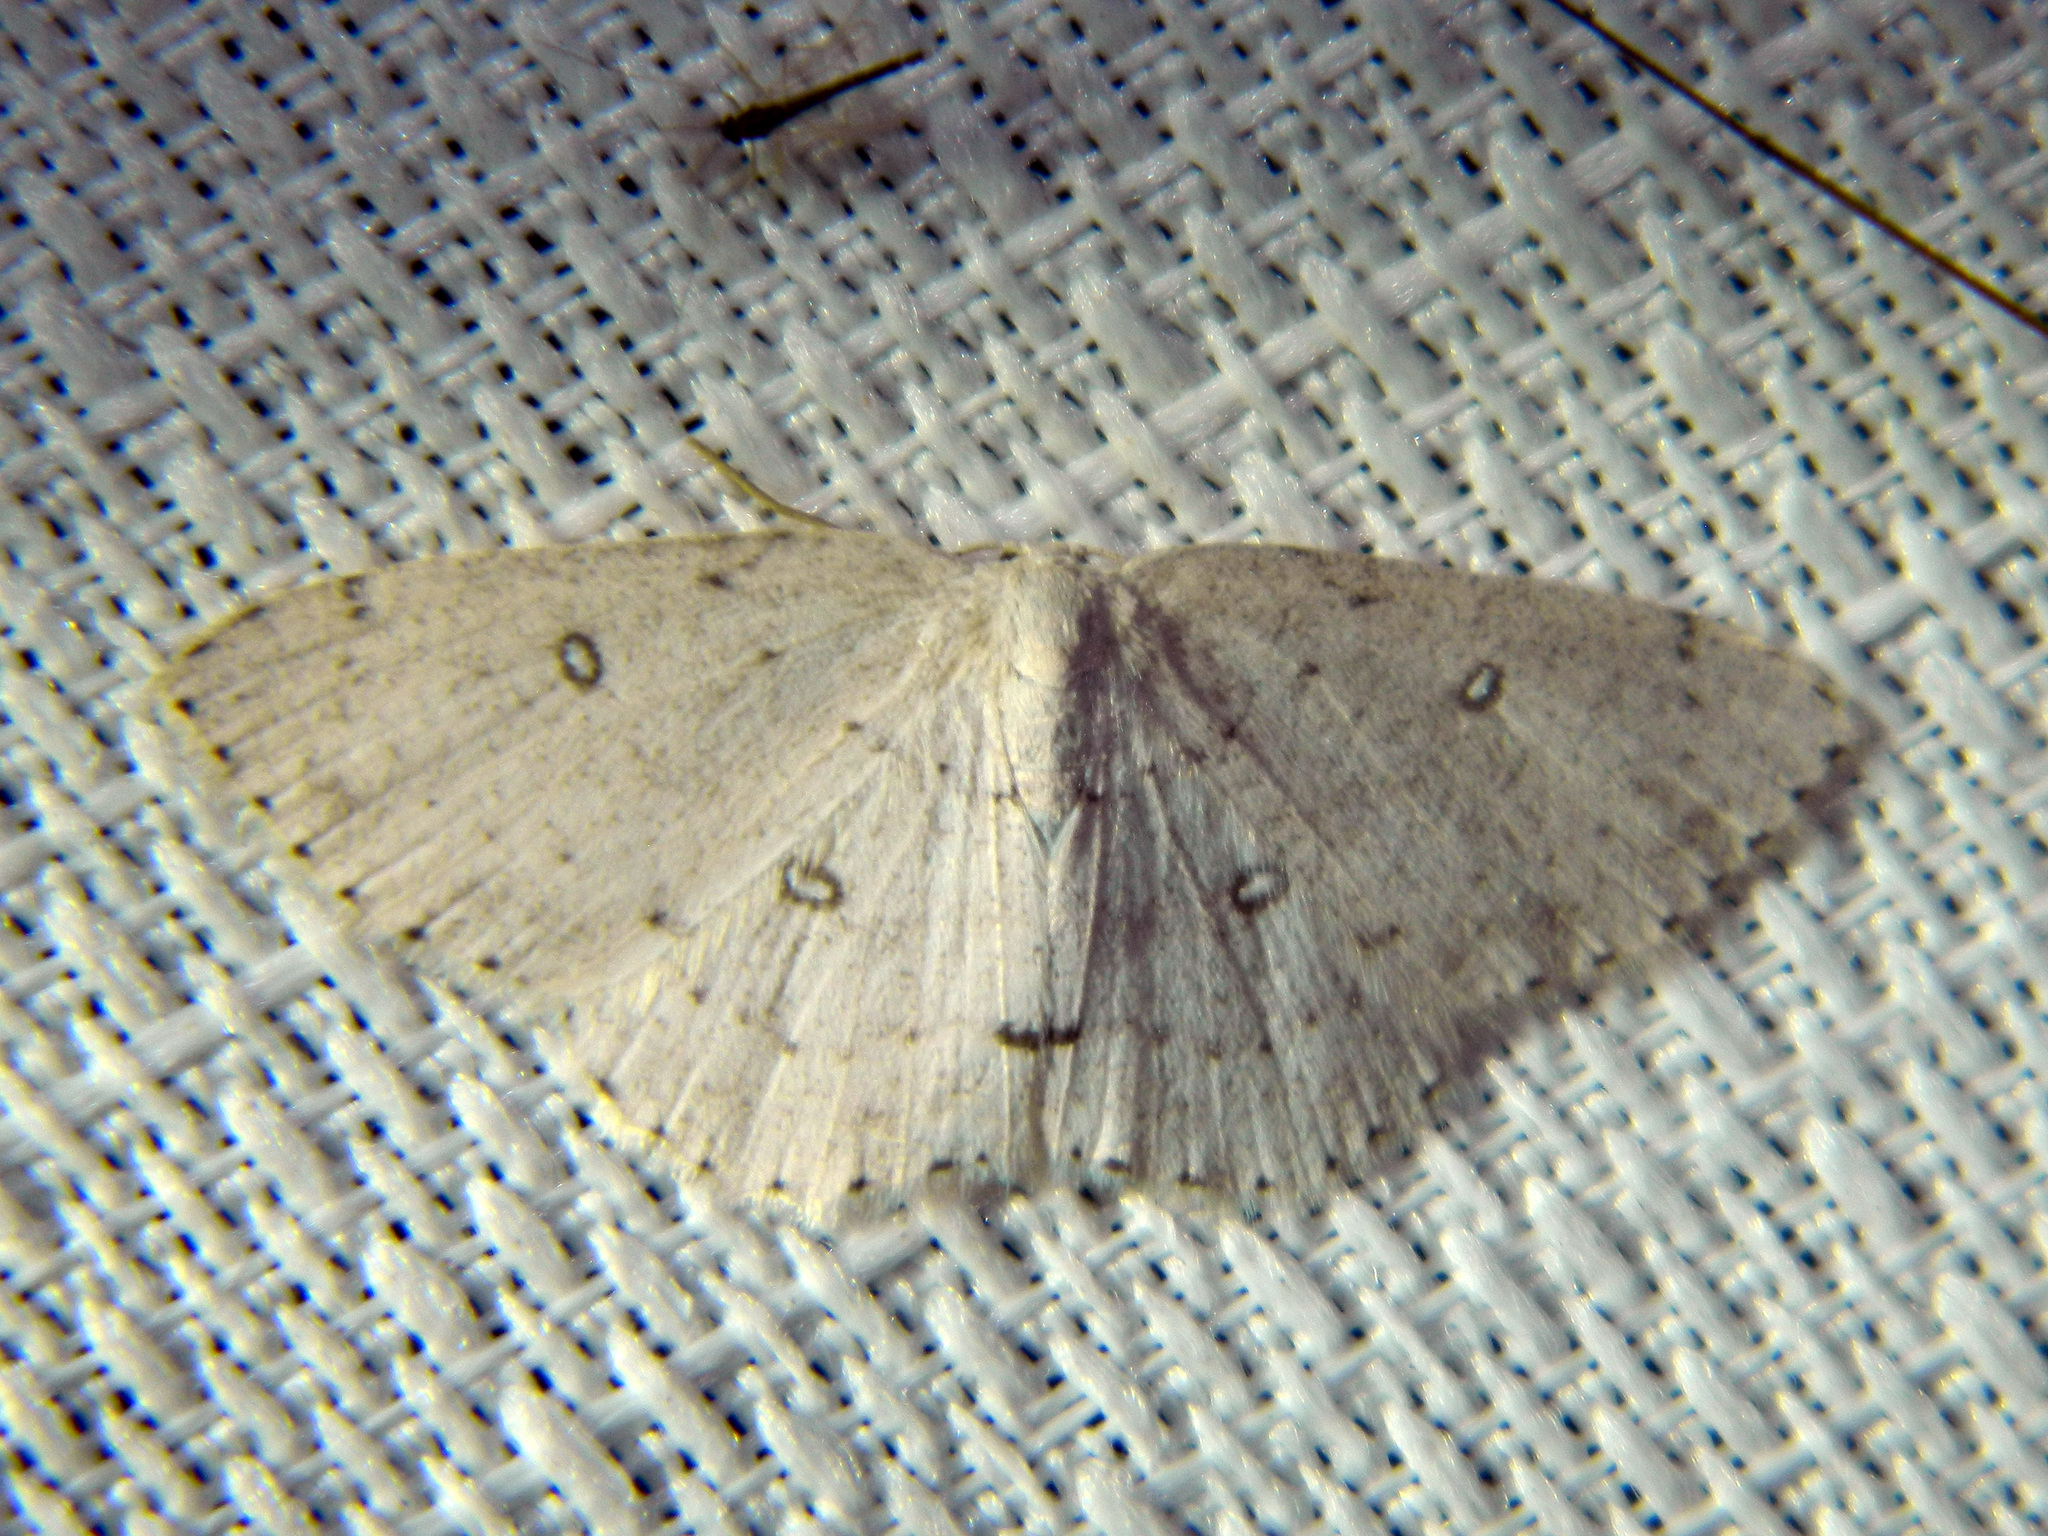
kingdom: Animalia
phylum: Arthropoda
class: Insecta
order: Lepidoptera
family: Geometridae
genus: Cyclophora
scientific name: Cyclophora pendulinaria
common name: Sweet fern geometer
